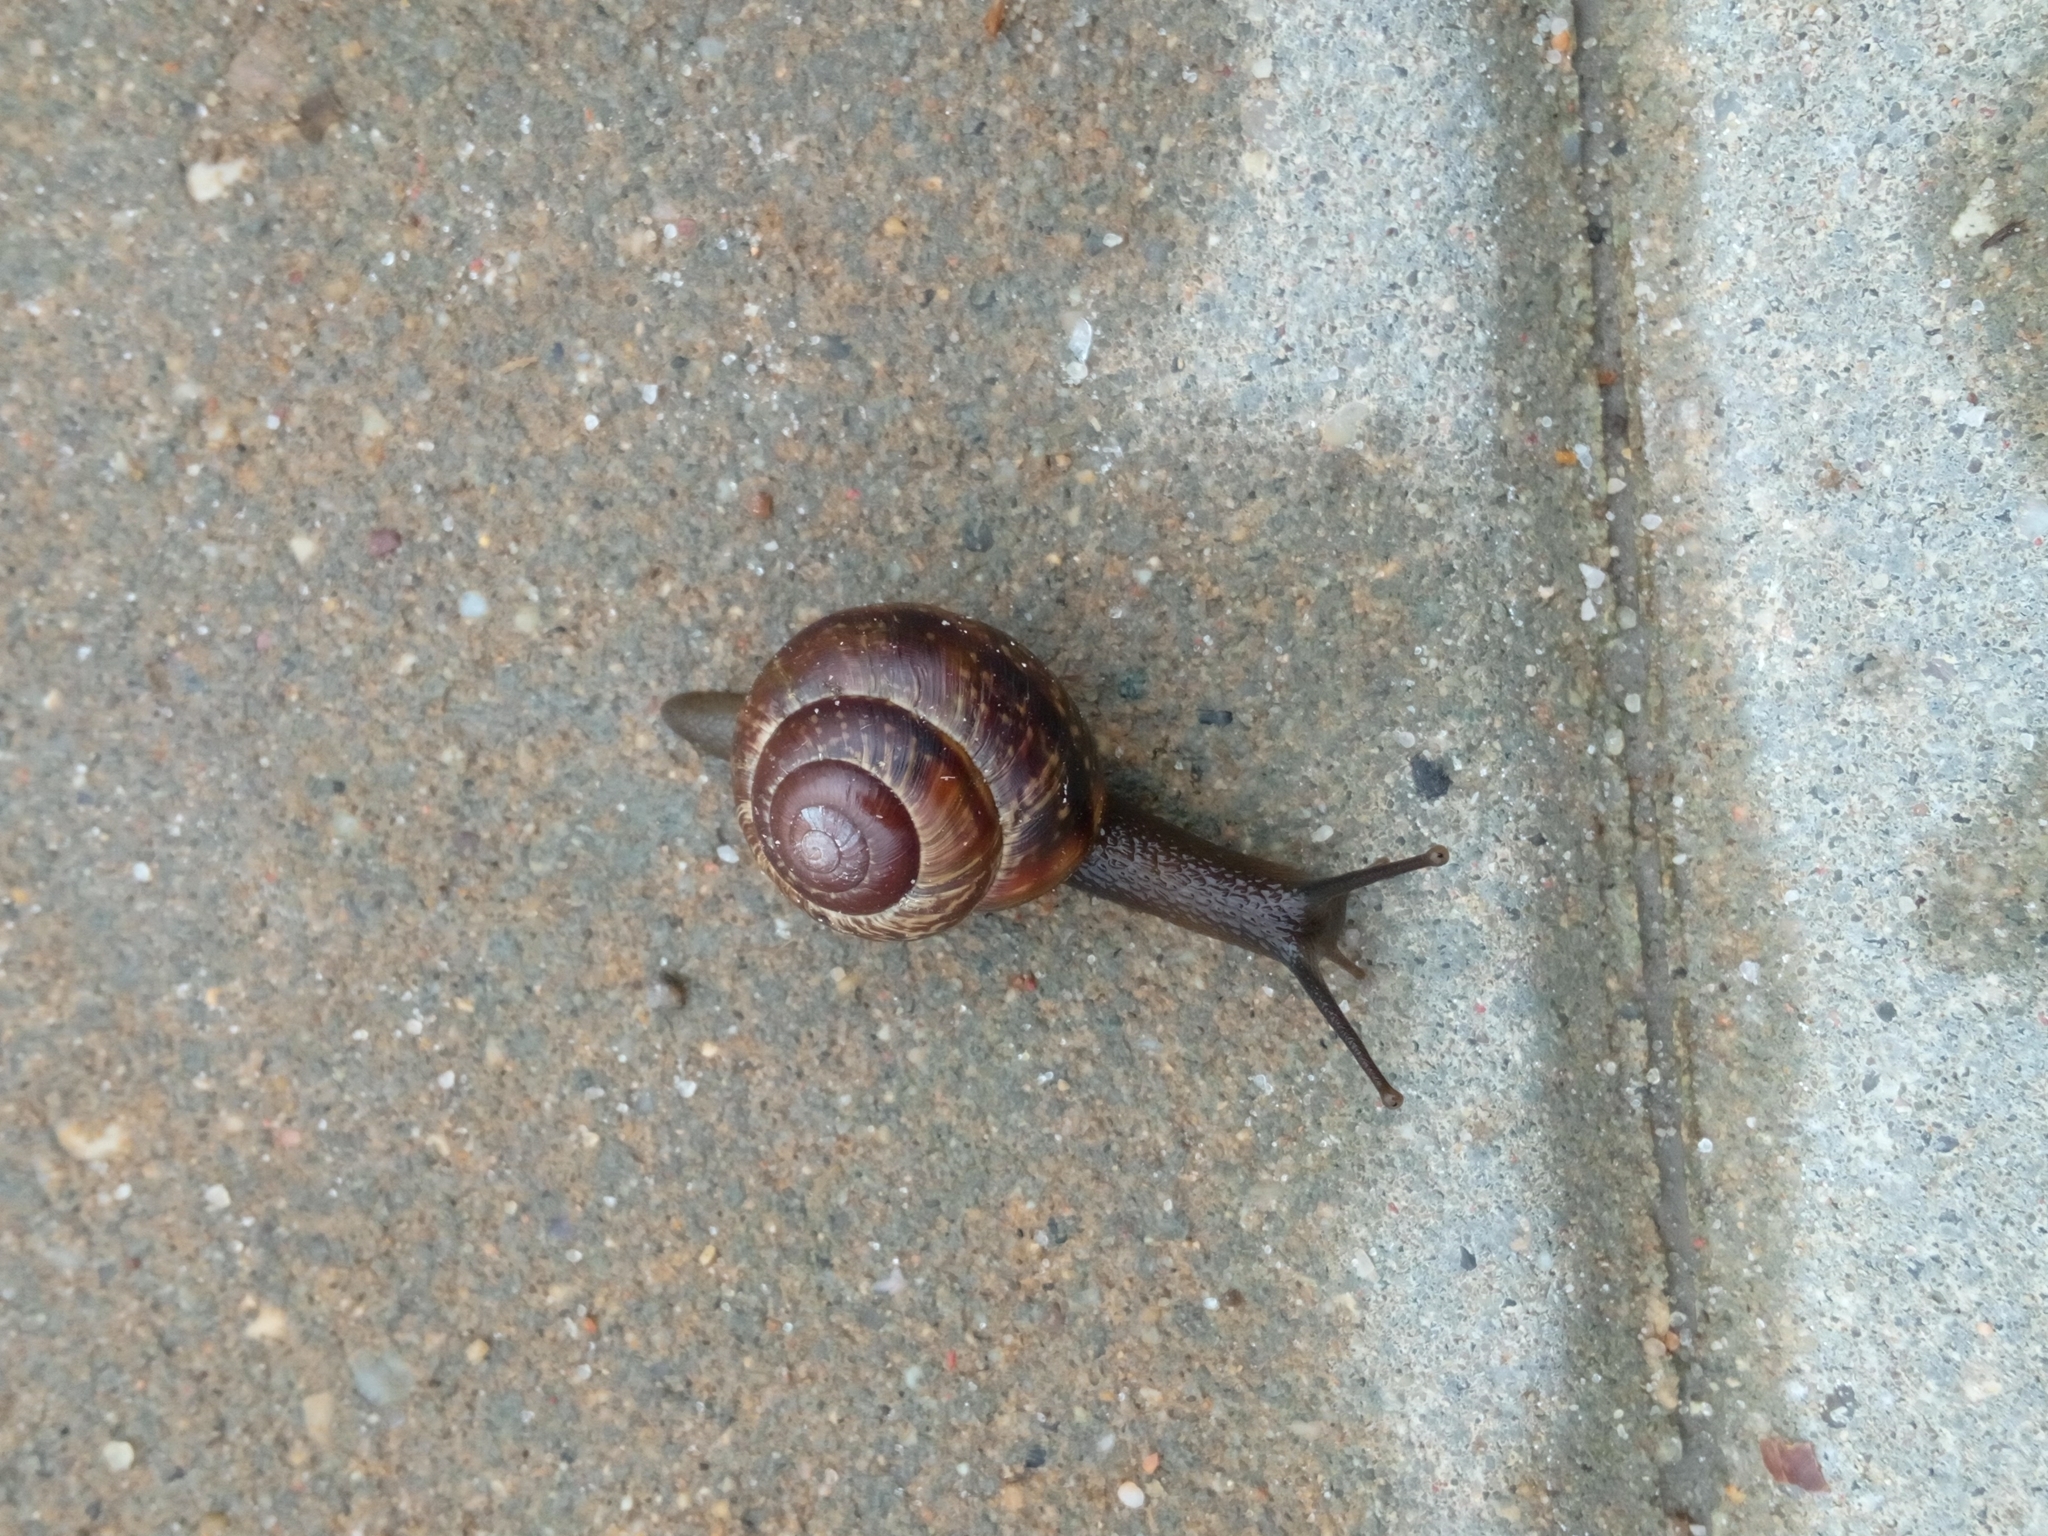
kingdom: Animalia
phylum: Mollusca
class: Gastropoda
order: Stylommatophora
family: Helicidae
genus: Arianta
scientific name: Arianta arbustorum
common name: Copse snail
